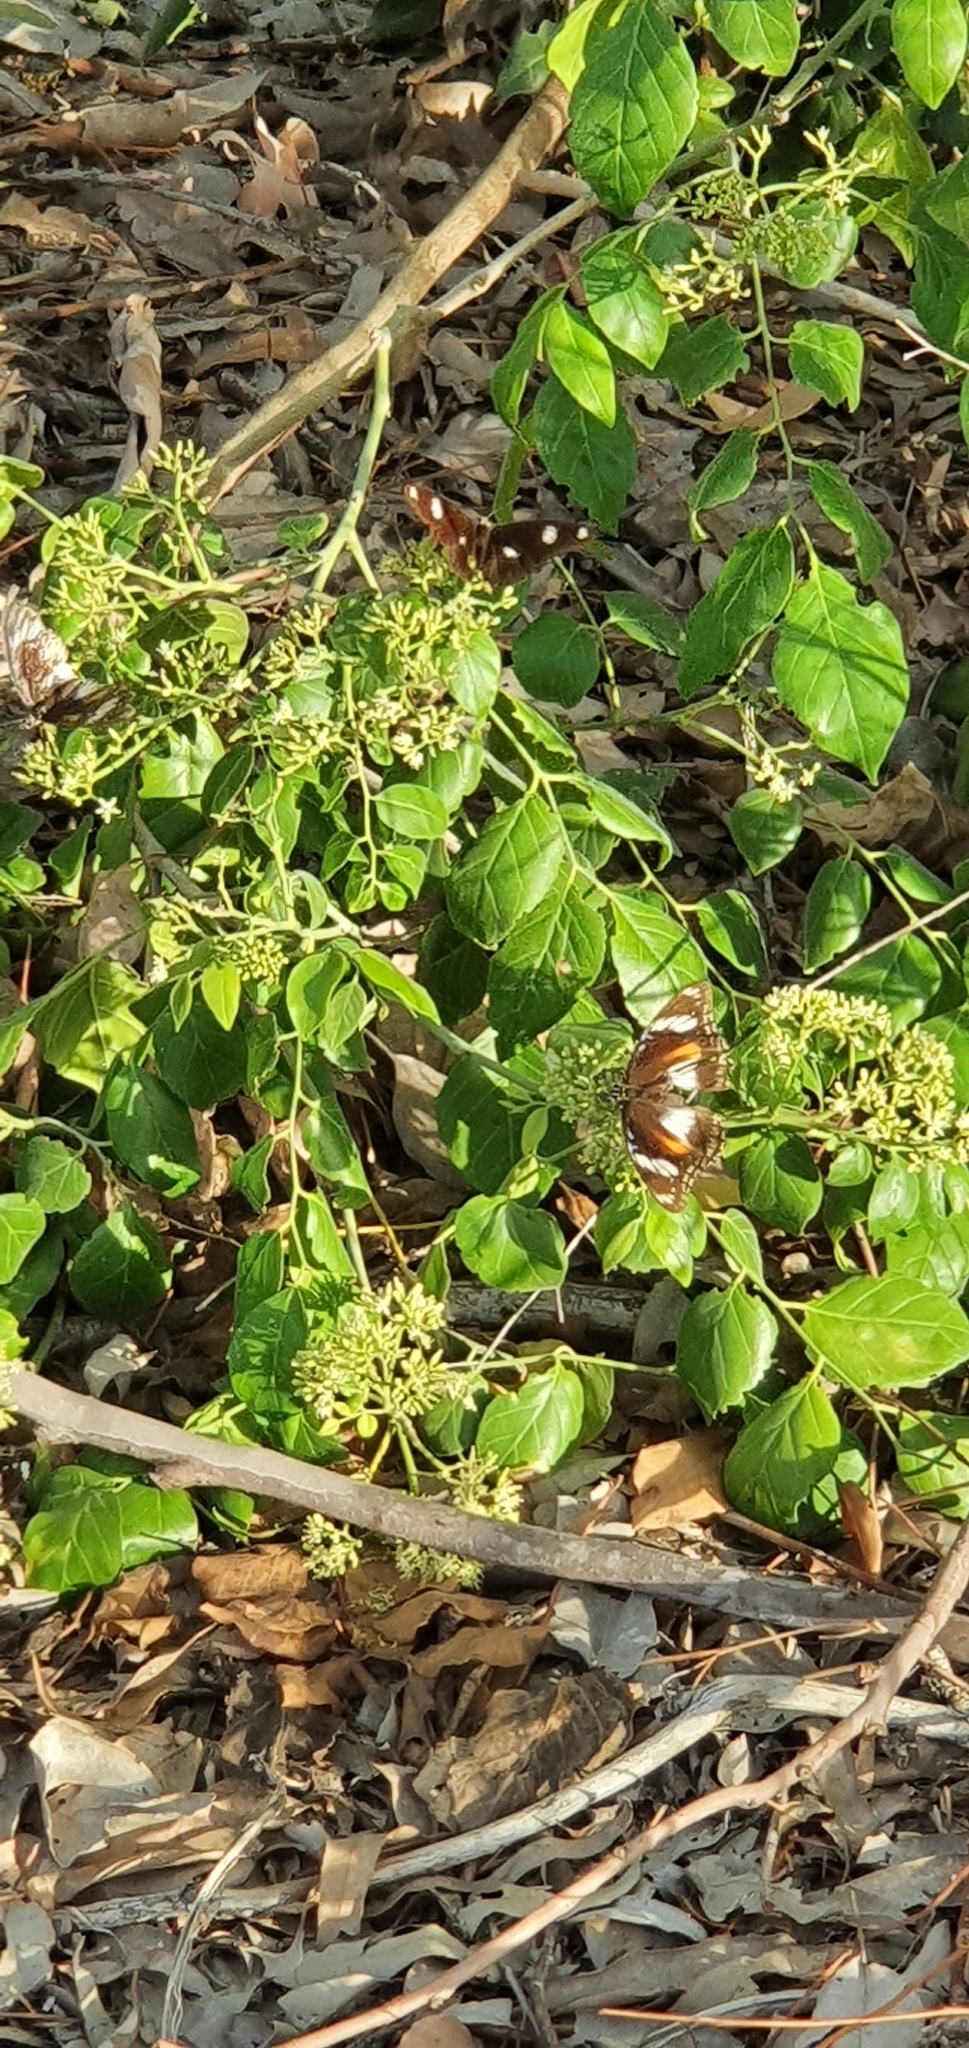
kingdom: Animalia
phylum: Arthropoda
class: Insecta
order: Lepidoptera
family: Nymphalidae
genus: Hypolimnas
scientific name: Hypolimnas bolina
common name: Great eggfly
